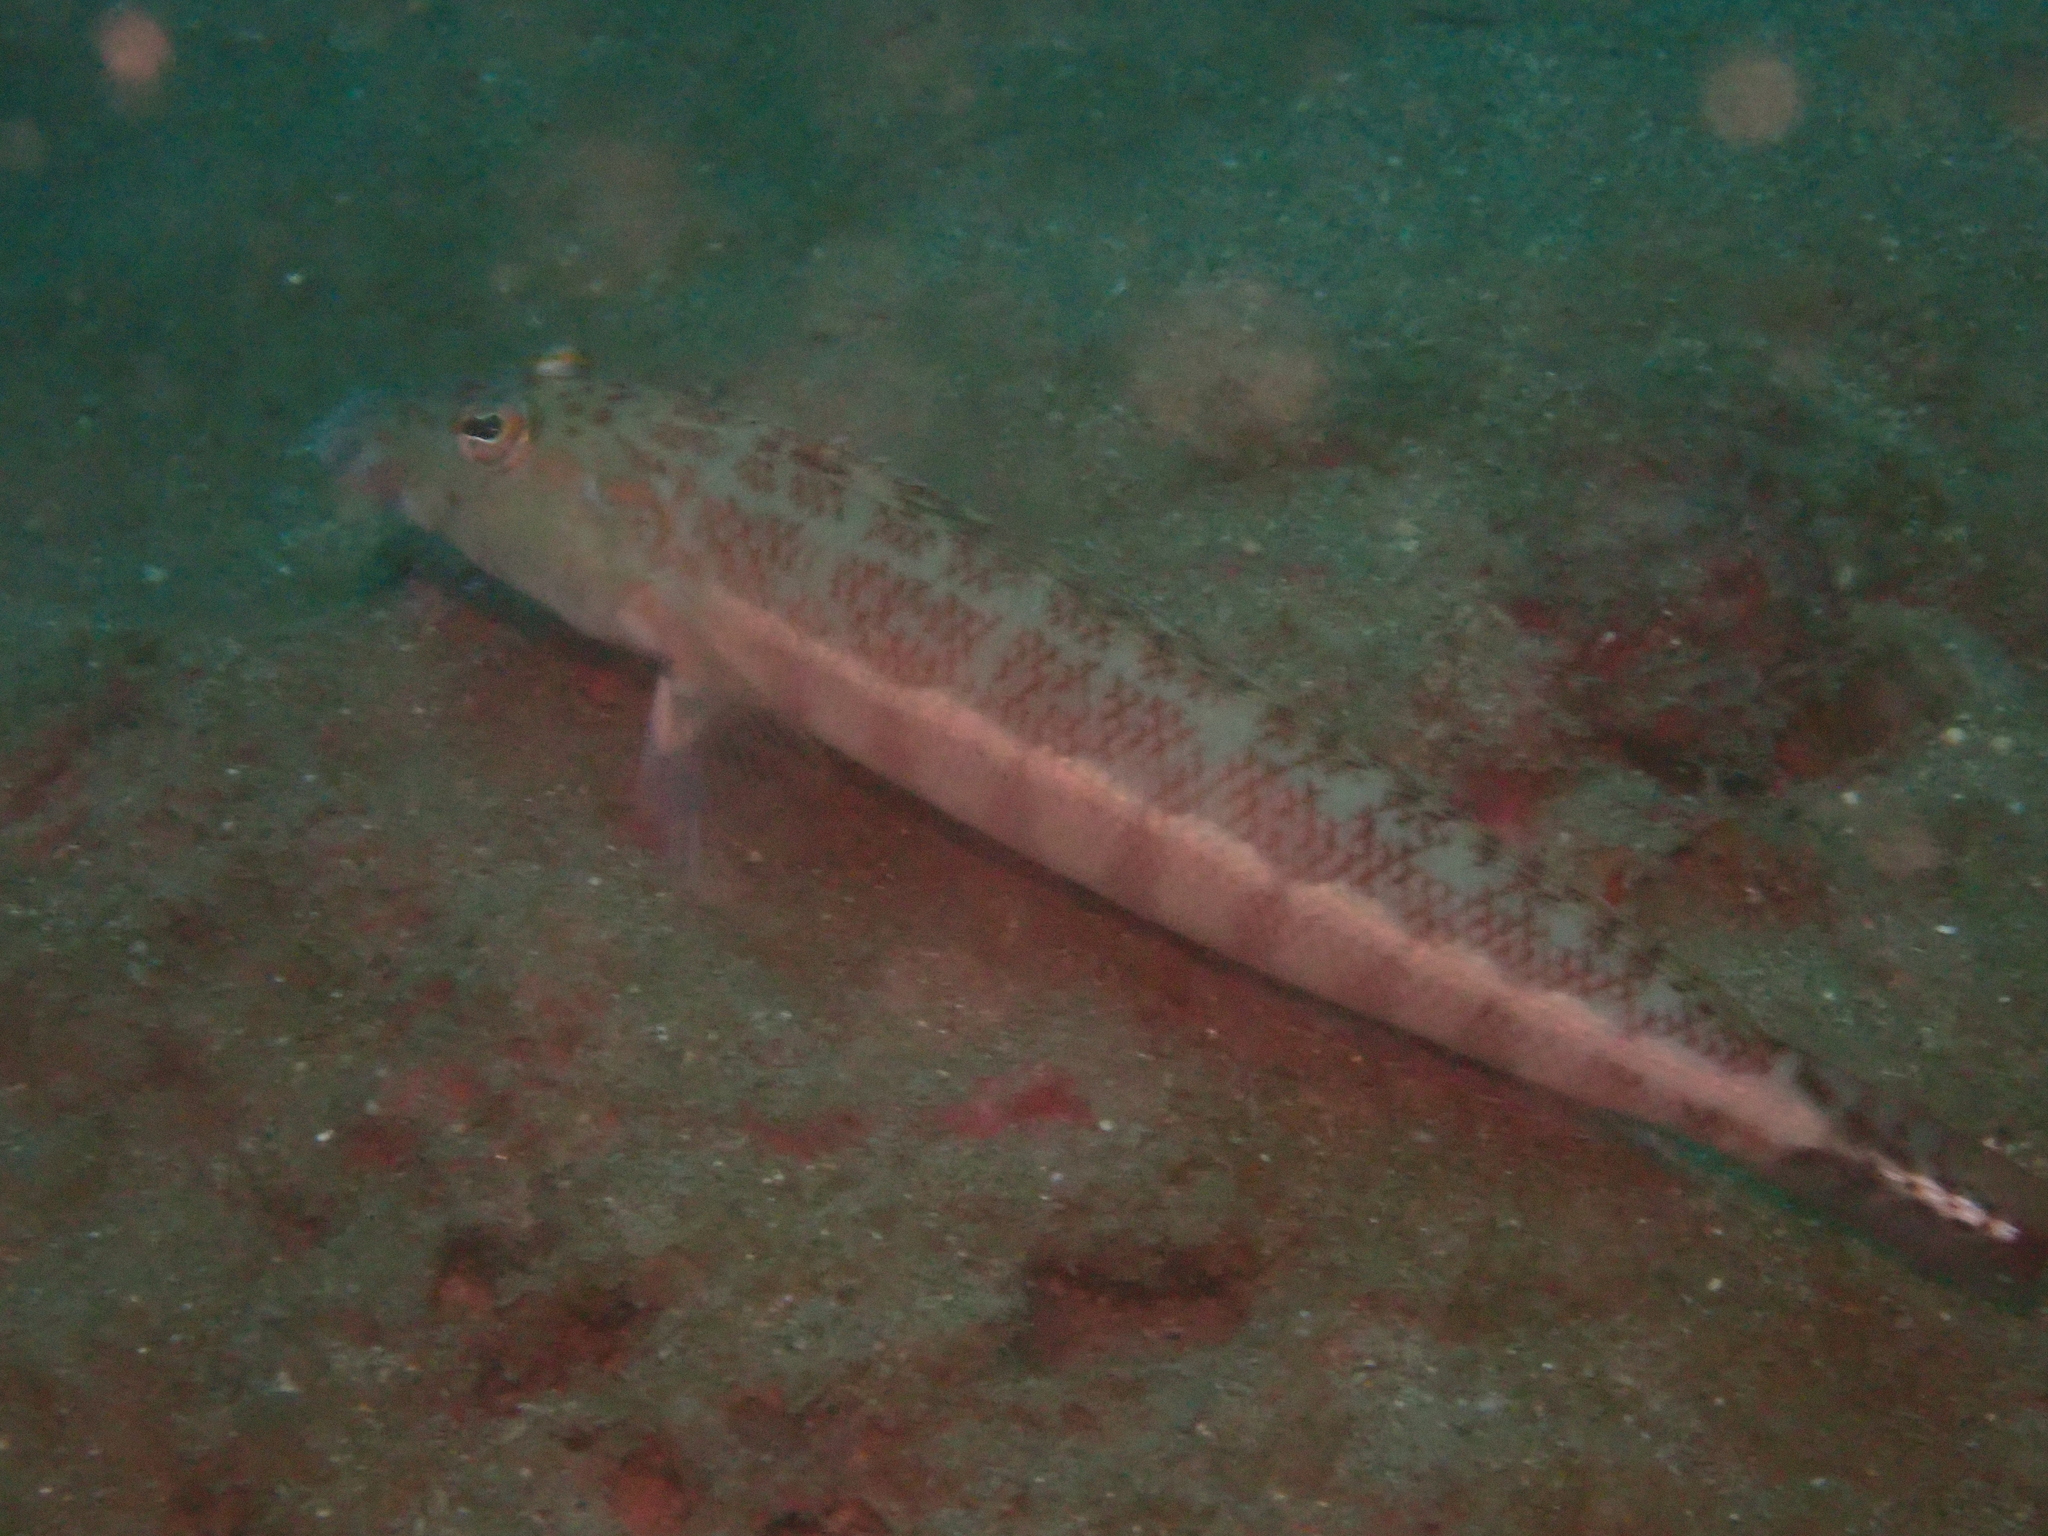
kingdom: Animalia
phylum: Chordata
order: Perciformes
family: Pinguipedidae
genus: Parapercis
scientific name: Parapercis xanthozona
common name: Yellowbar sandperch
